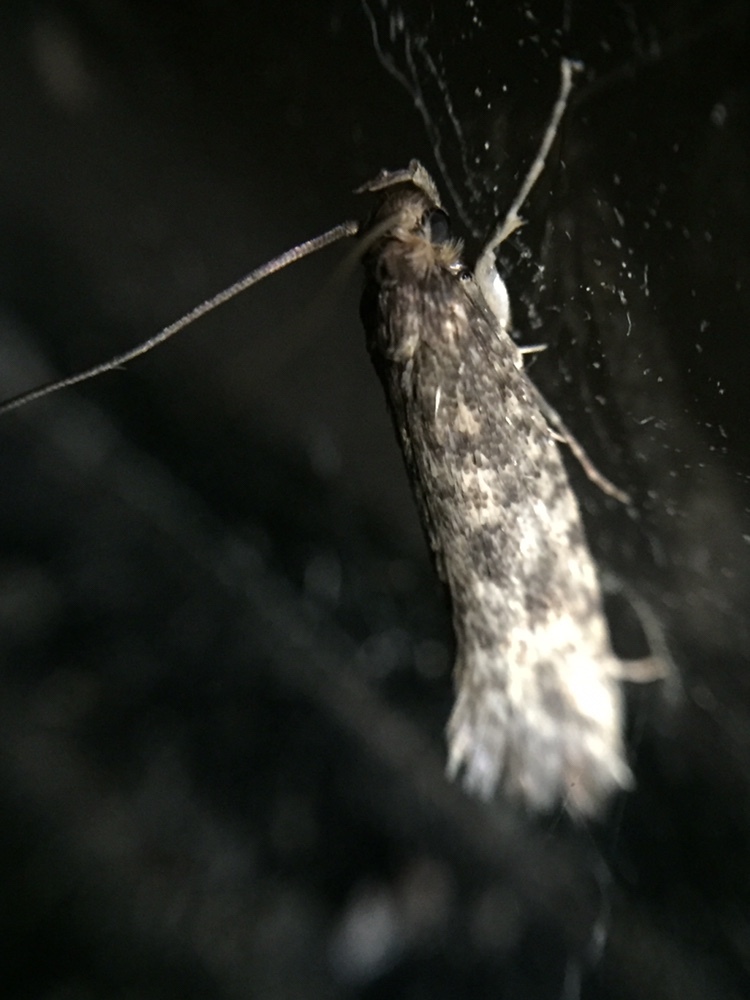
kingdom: Animalia
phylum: Arthropoda
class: Insecta
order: Lepidoptera
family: Tineidae
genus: Lindera
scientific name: Lindera tessellatella
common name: Moth
